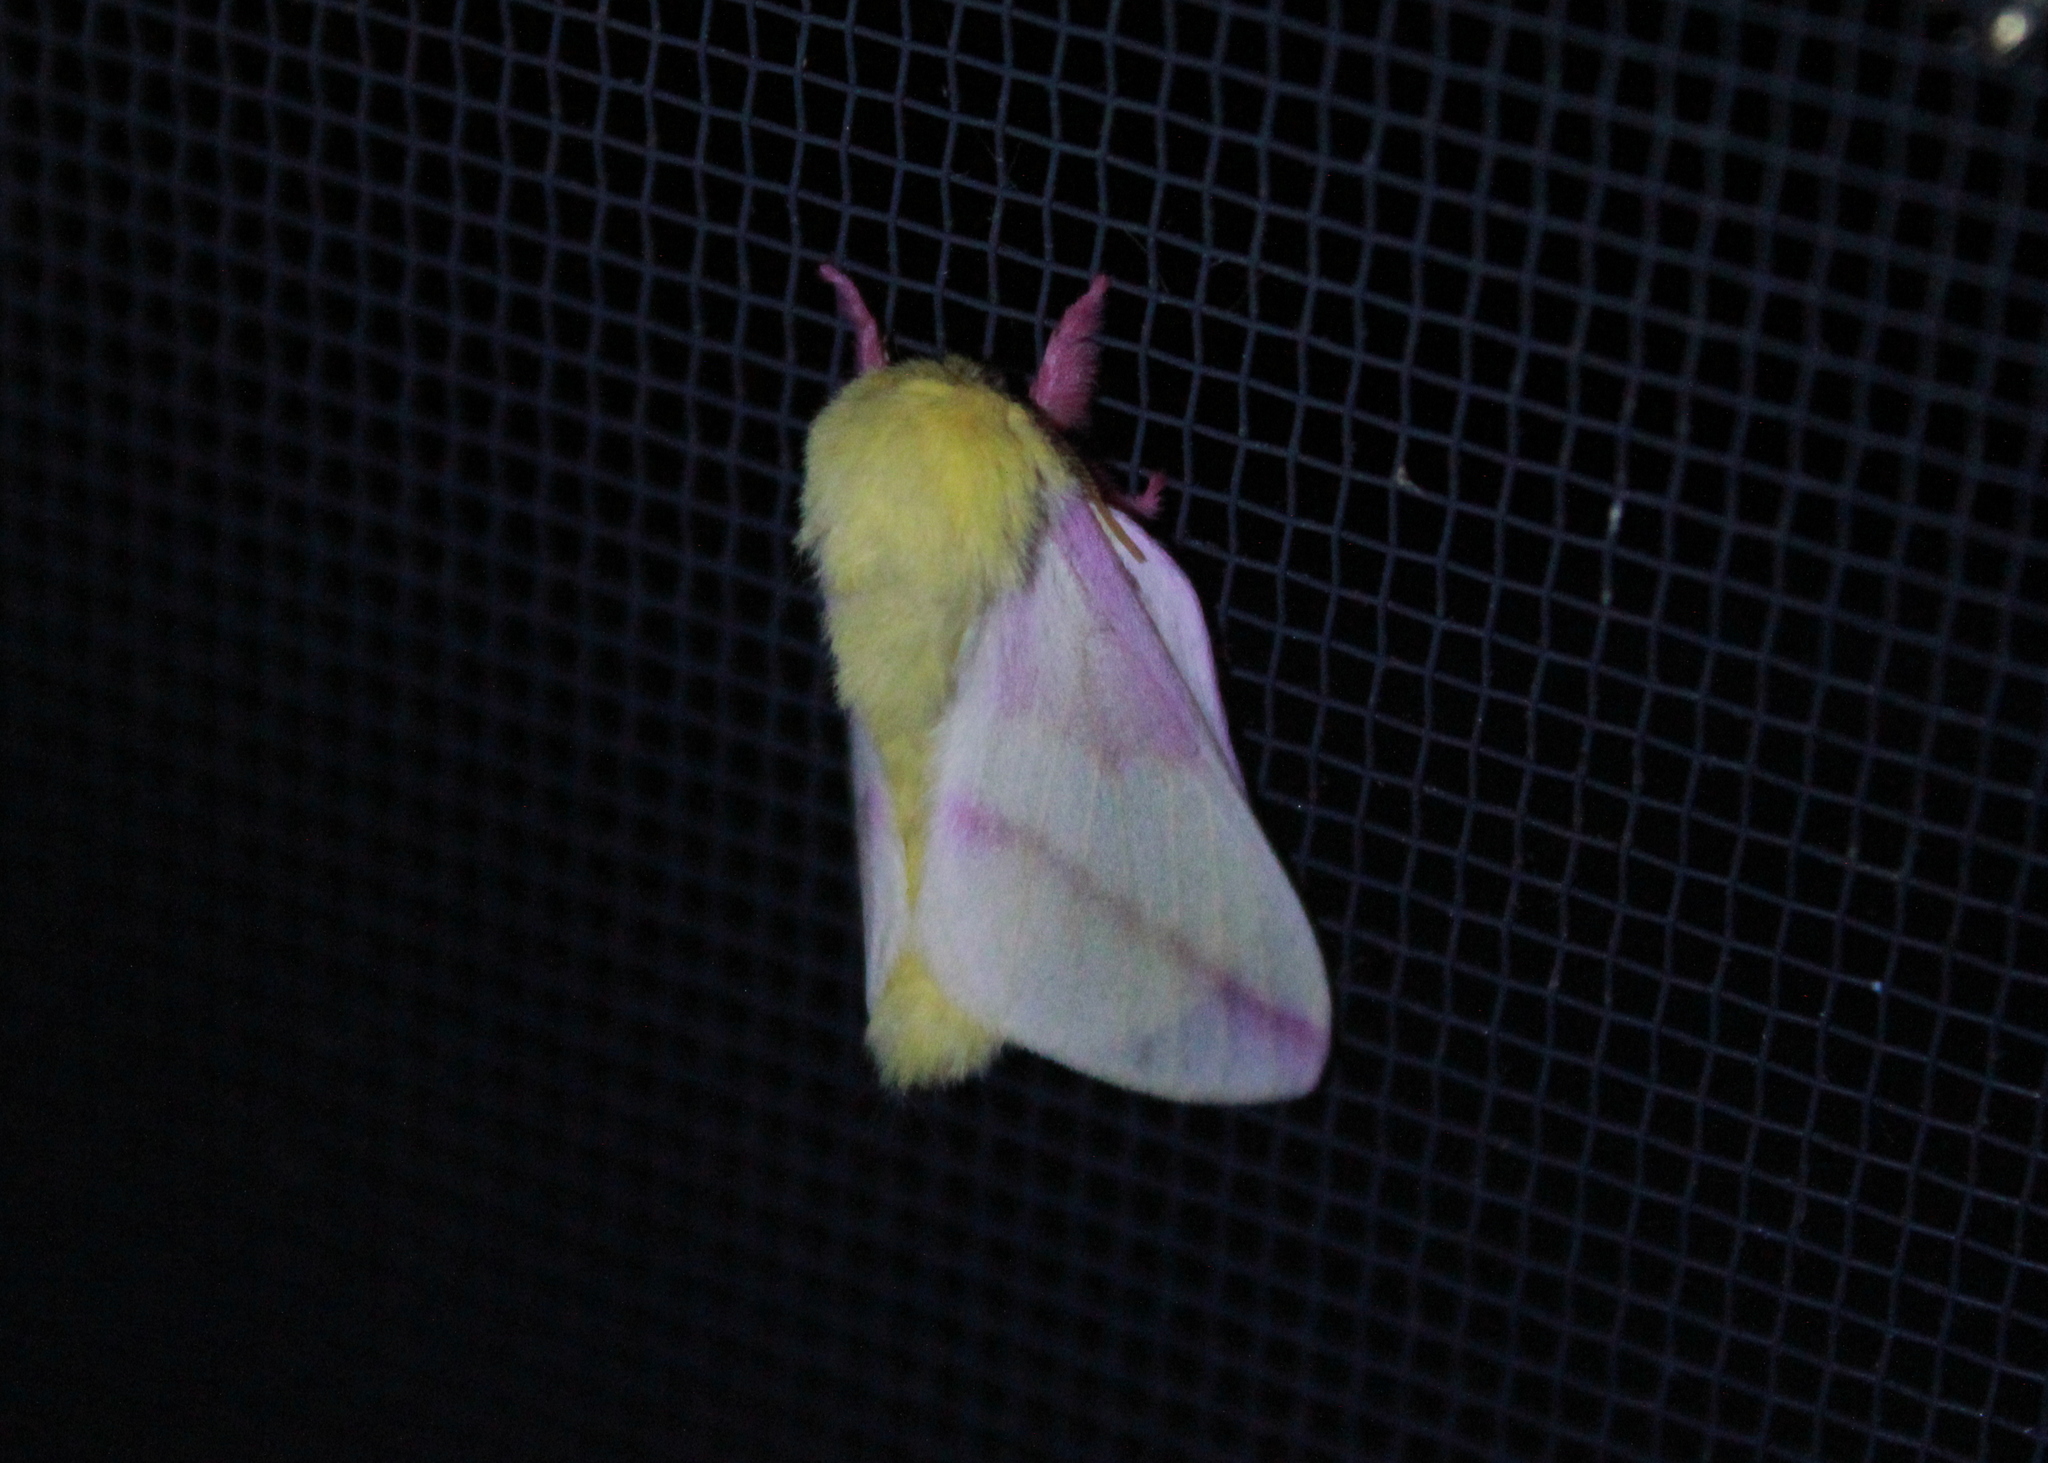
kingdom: Animalia
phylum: Arthropoda
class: Insecta
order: Lepidoptera
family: Saturniidae
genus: Dryocampa
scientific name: Dryocampa rubicunda
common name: Rosy maple moth
